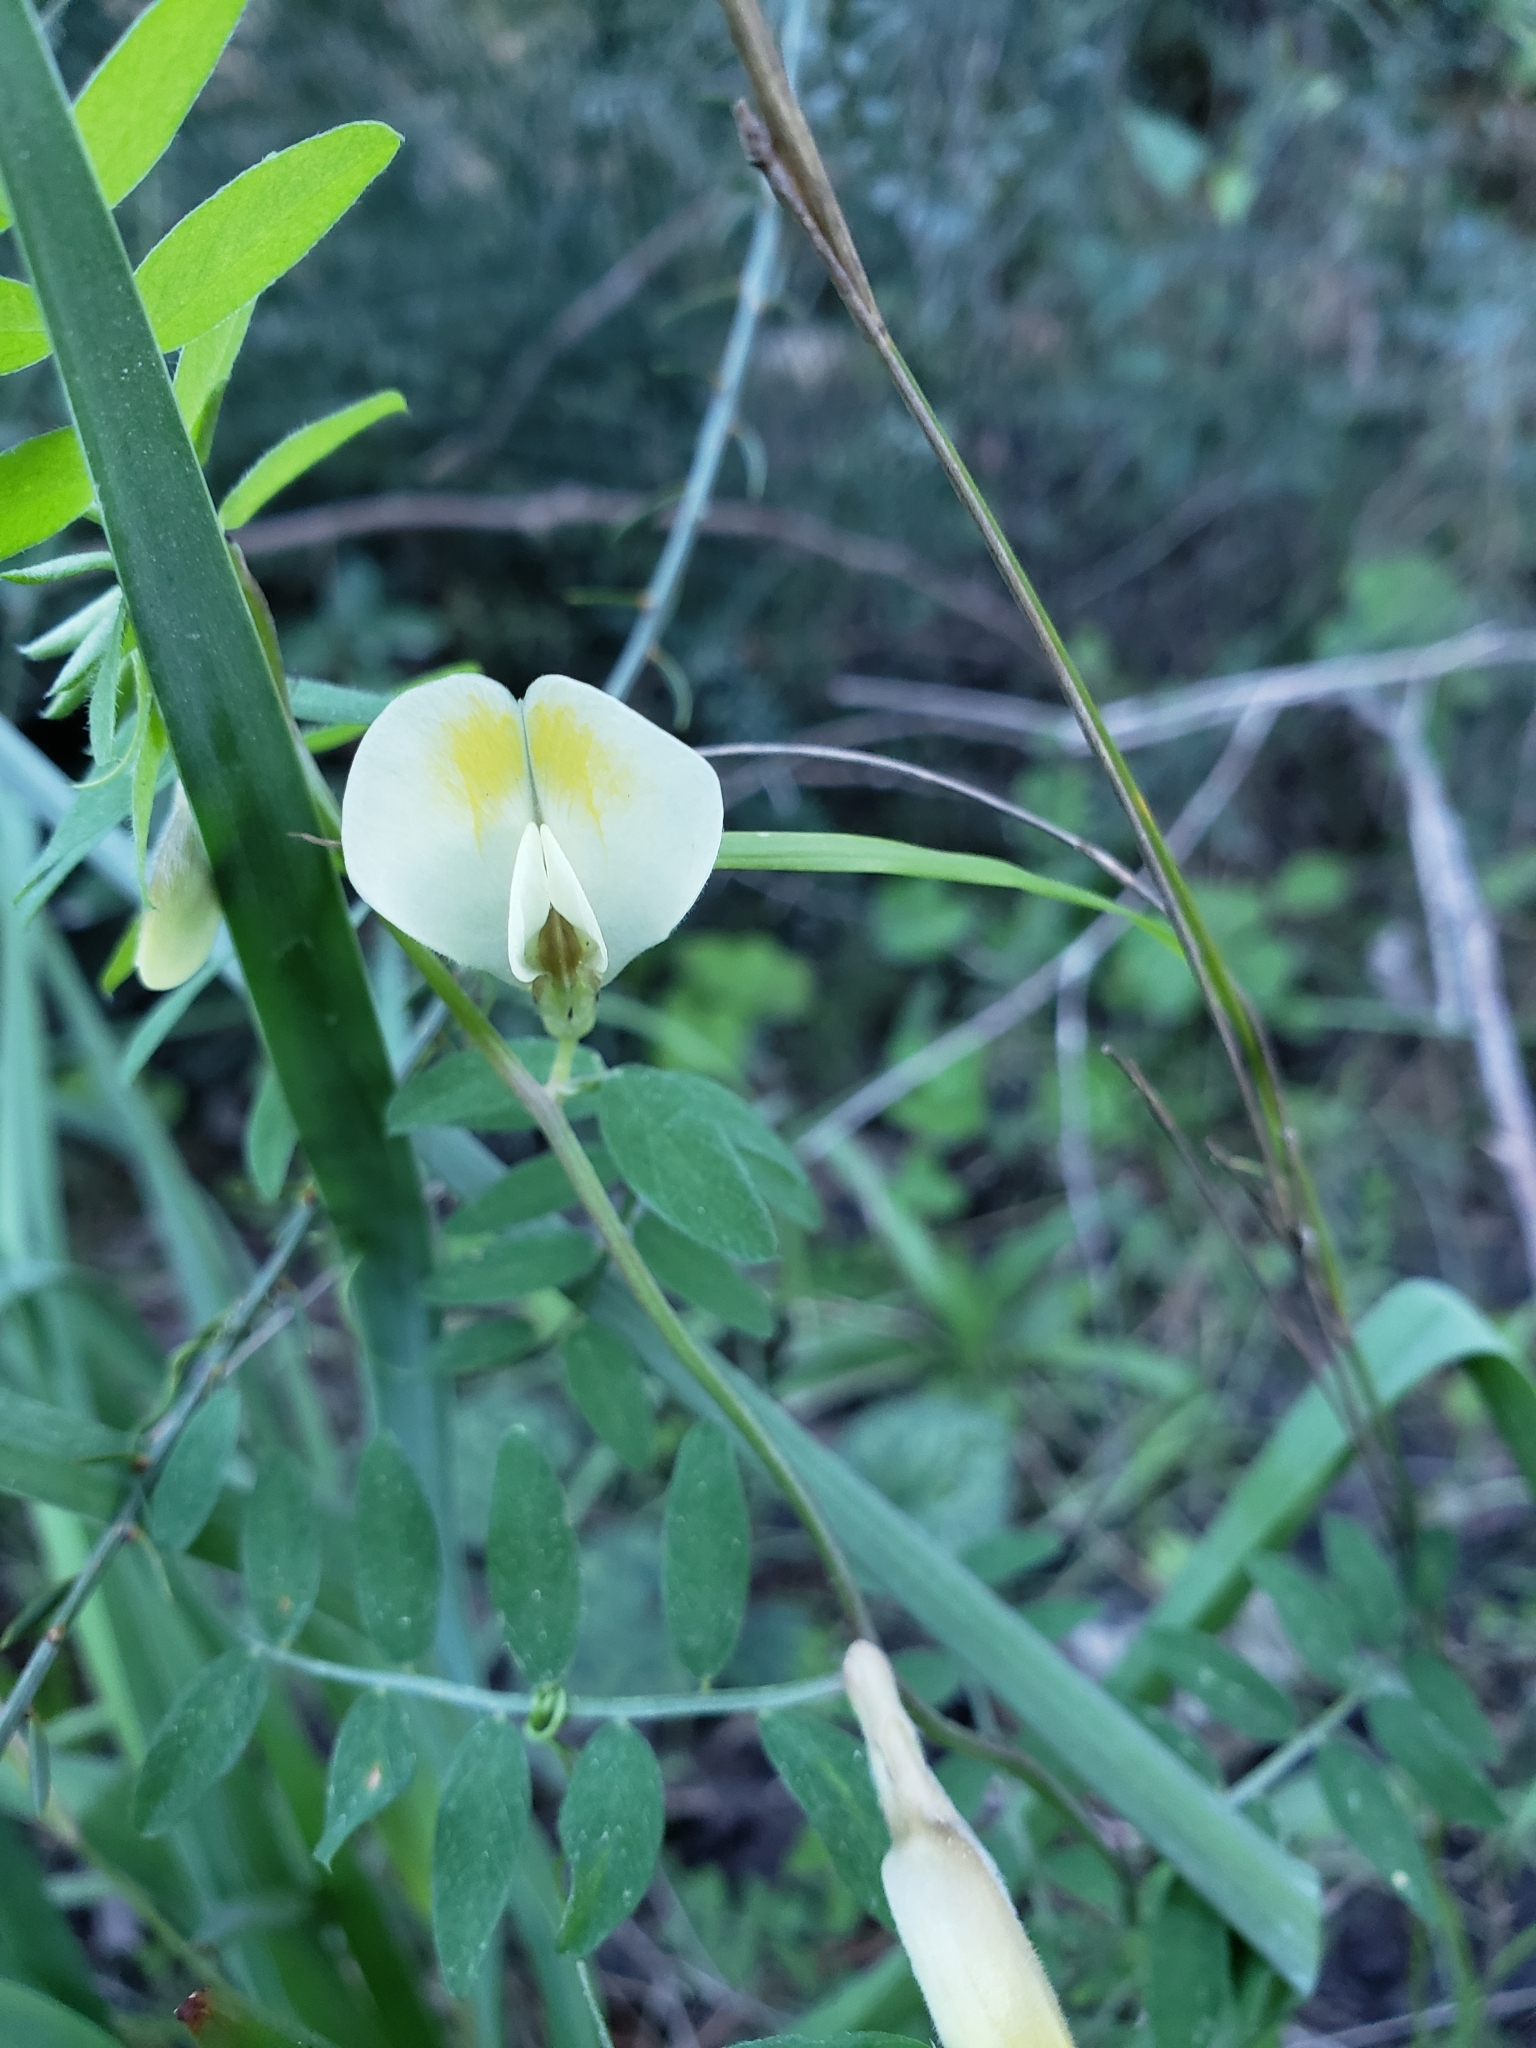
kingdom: Plantae
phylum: Tracheophyta
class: Magnoliopsida
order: Fabales
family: Fabaceae
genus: Vicia
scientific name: Vicia hybrida
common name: Hairy yellow vetch
